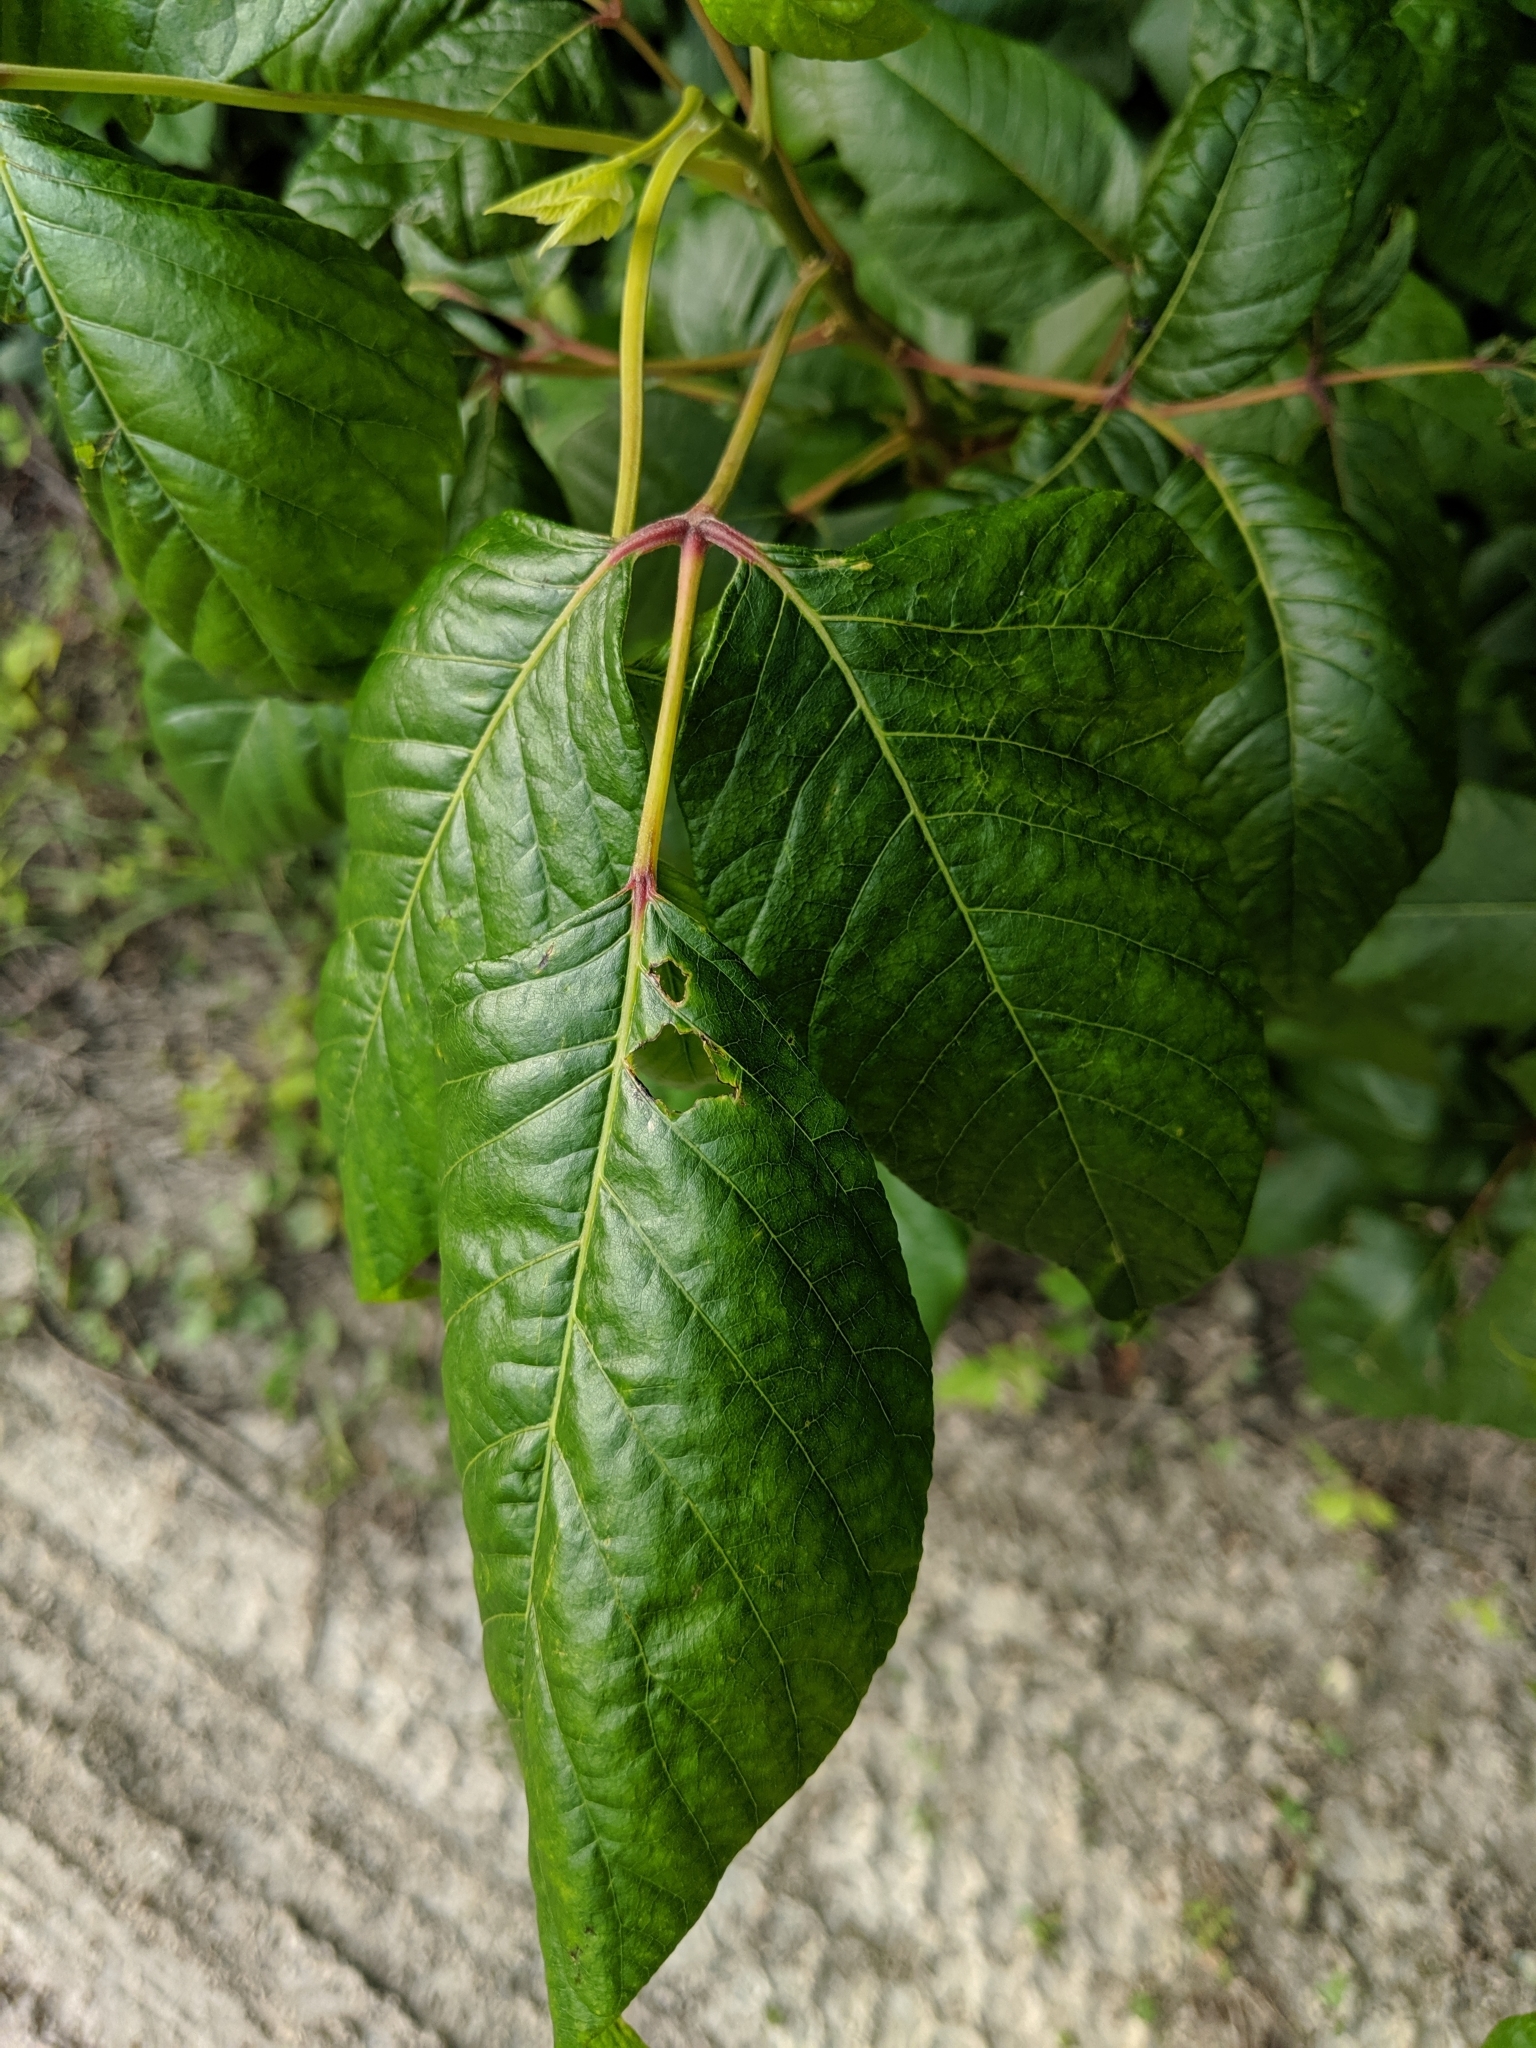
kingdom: Plantae
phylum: Tracheophyta
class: Magnoliopsida
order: Sapindales
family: Anacardiaceae
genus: Toxicodendron
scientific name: Toxicodendron radicans
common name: Poison ivy
